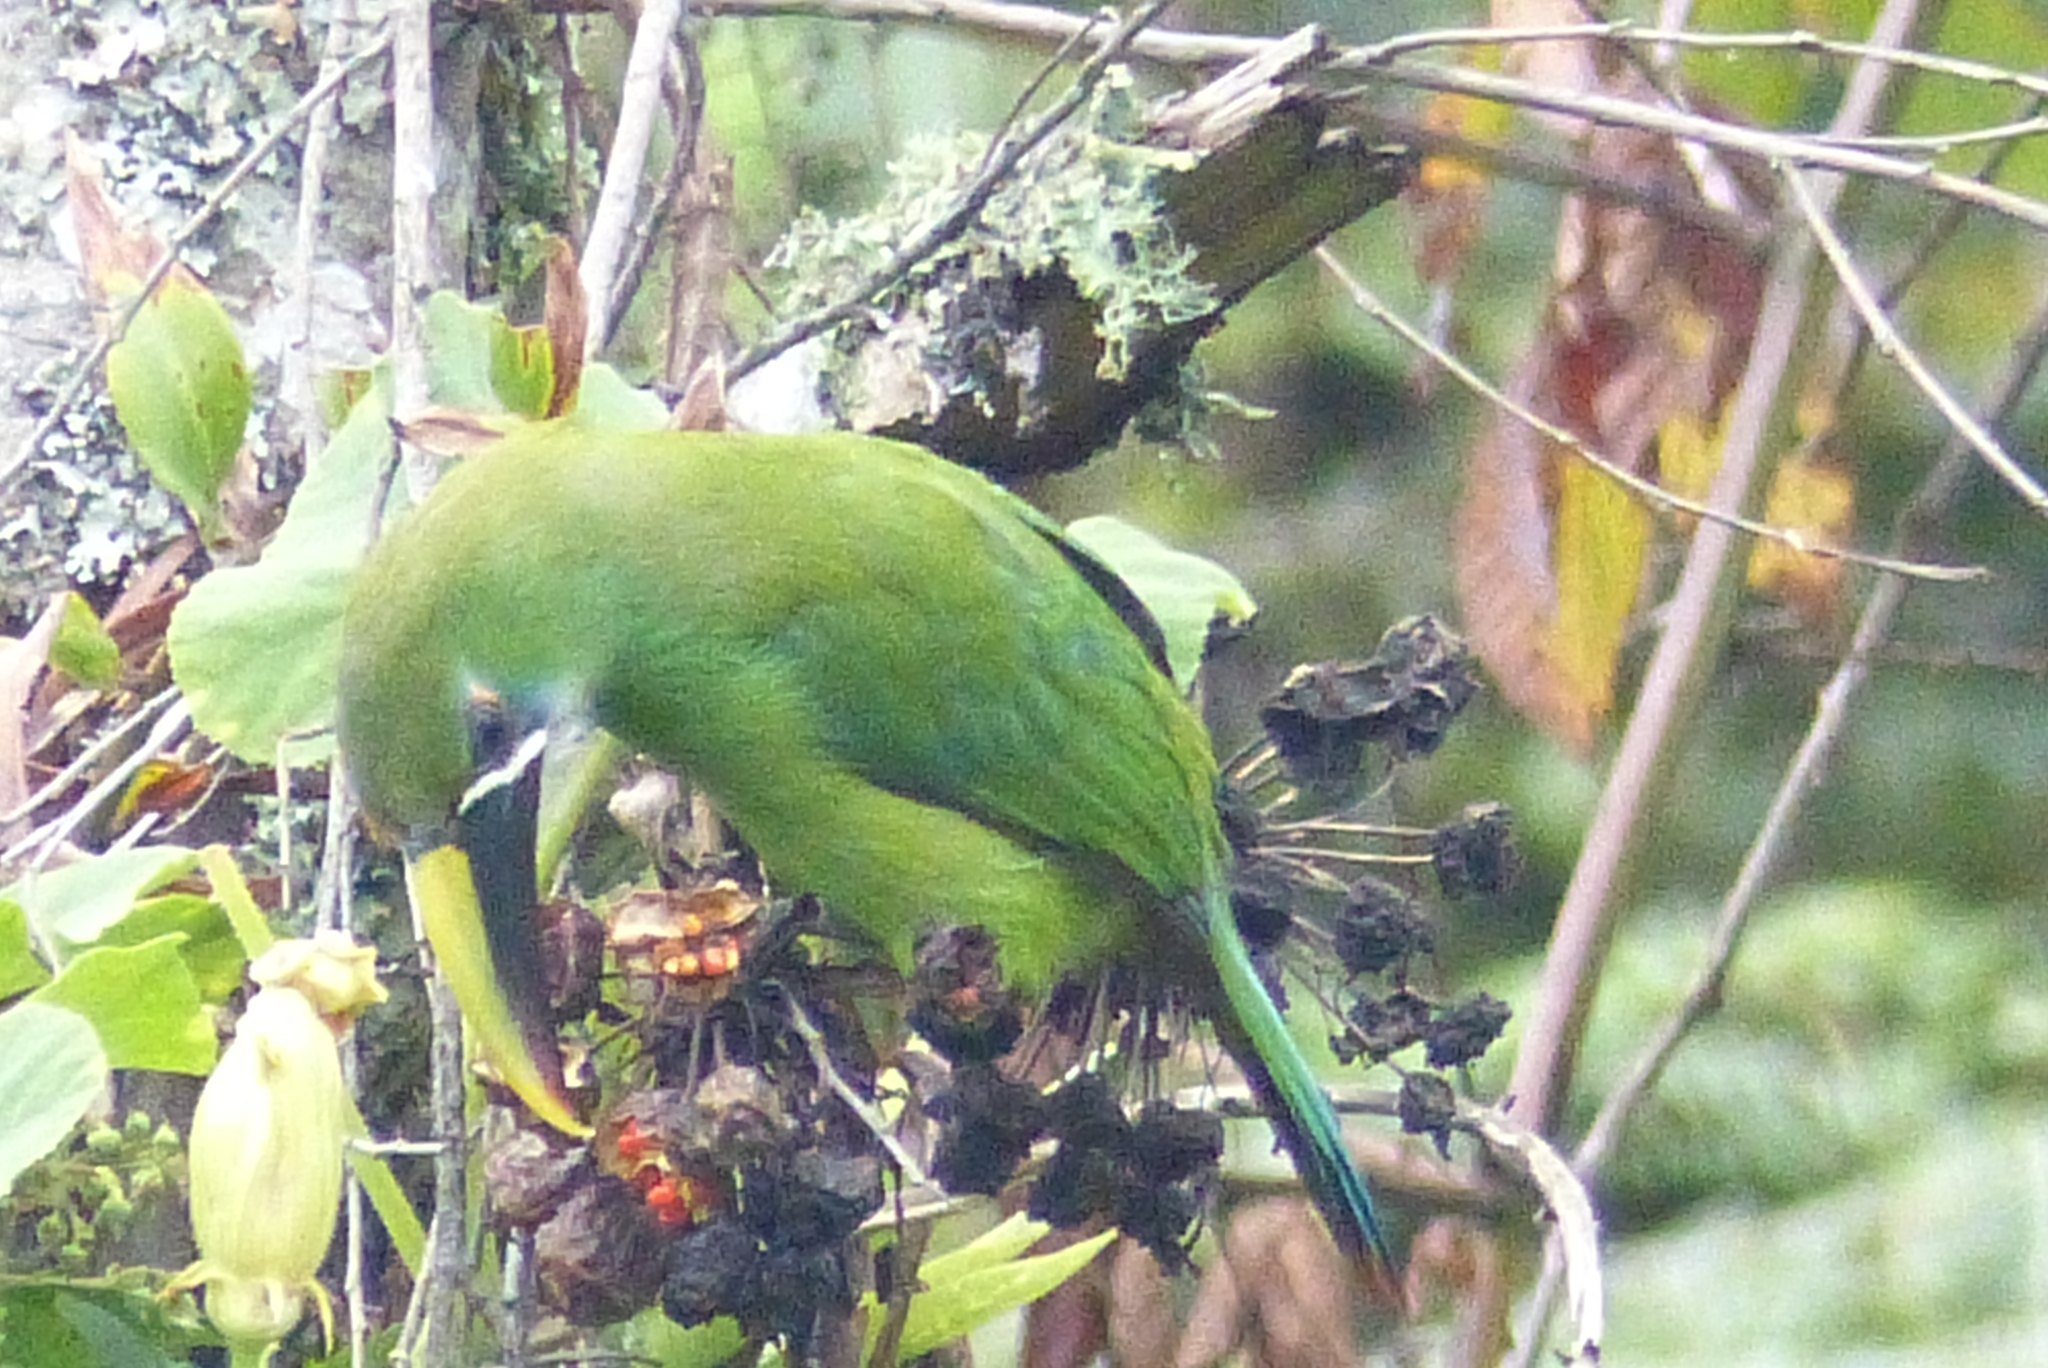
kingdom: Animalia
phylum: Chordata
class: Aves
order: Piciformes
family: Ramphastidae
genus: Aulacorhynchus
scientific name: Aulacorhynchus albivitta
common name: White-throated toucanet
